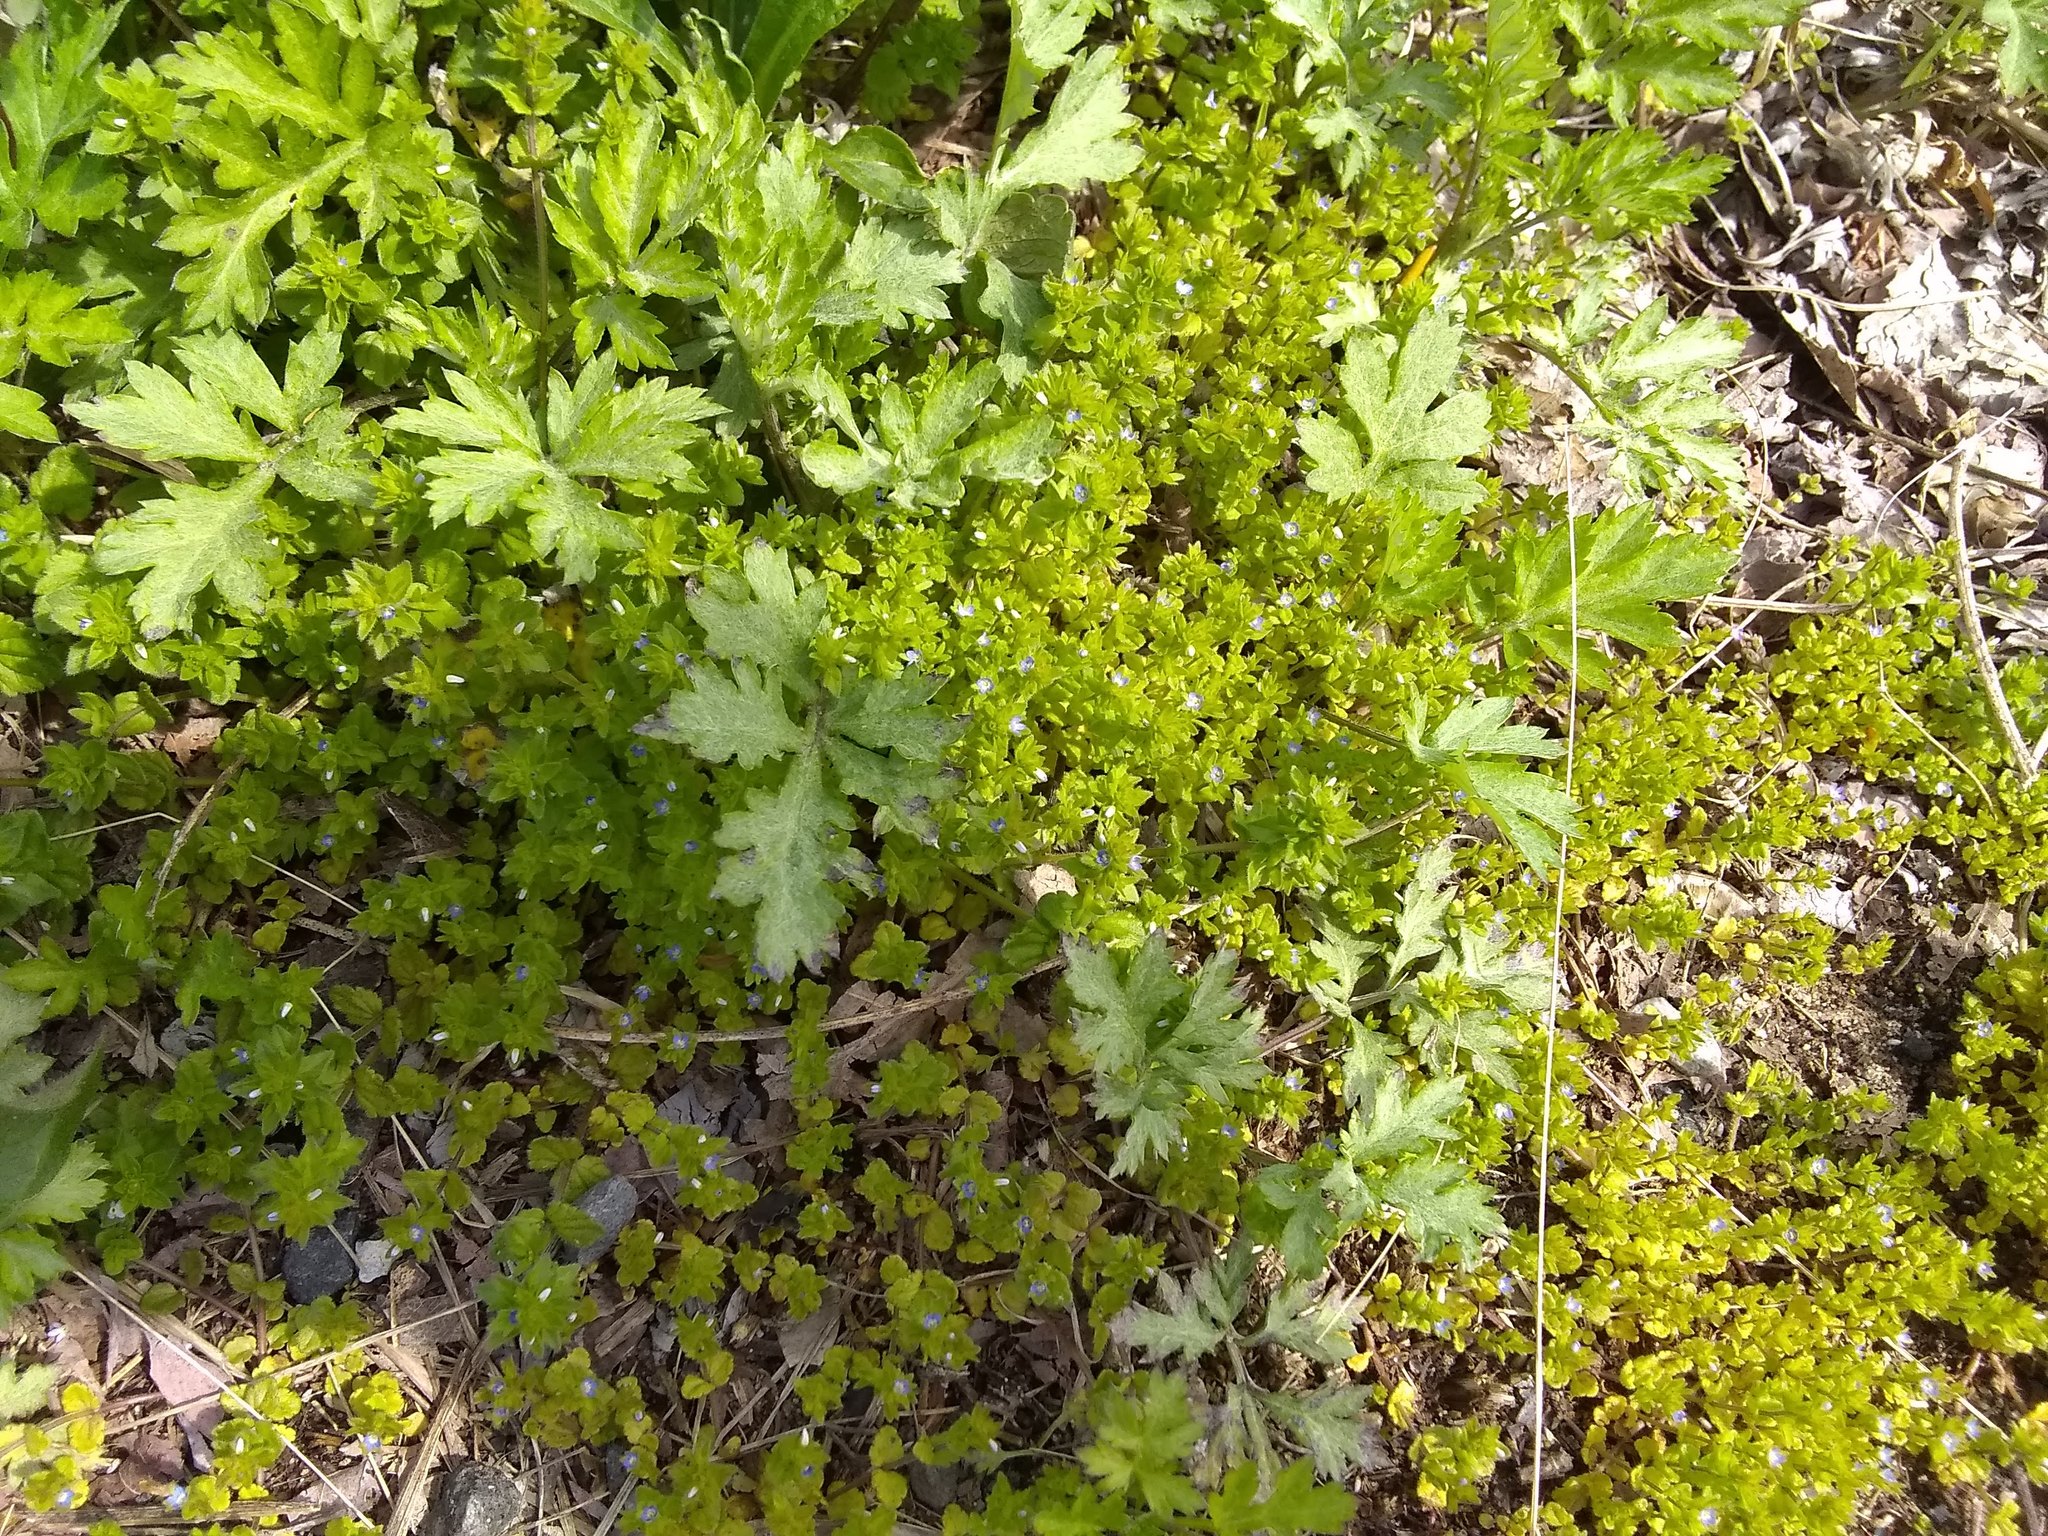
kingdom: Plantae
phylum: Tracheophyta
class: Magnoliopsida
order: Lamiales
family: Plantaginaceae
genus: Veronica
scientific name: Veronica arvensis
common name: Corn speedwell
